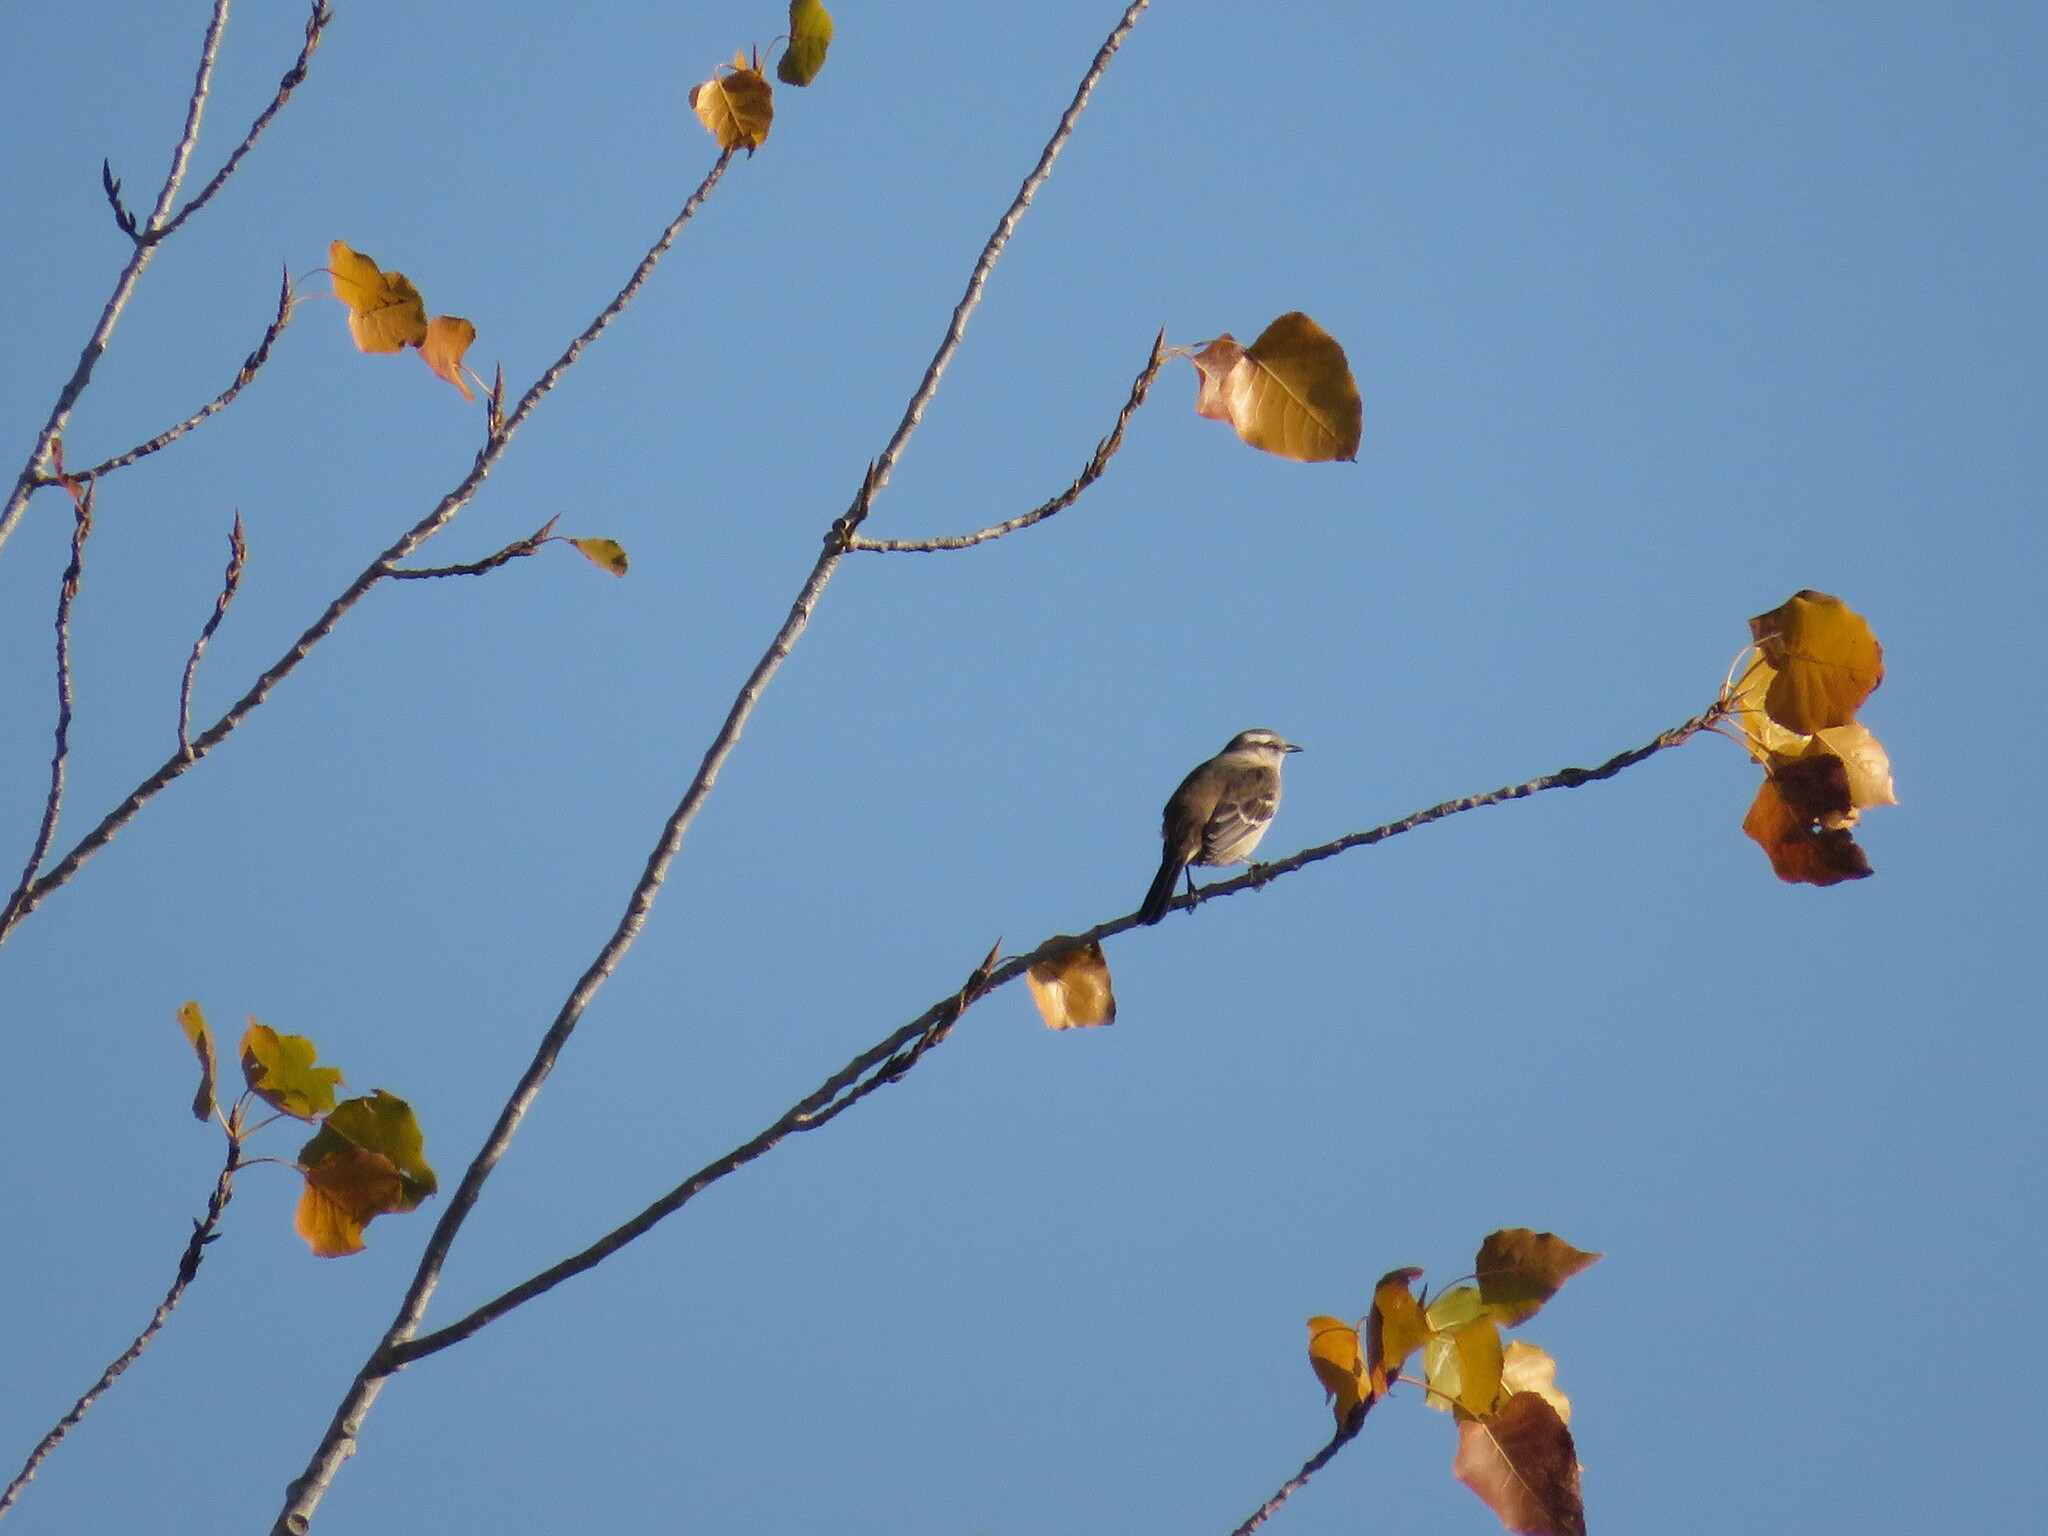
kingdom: Animalia
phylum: Chordata
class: Aves
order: Passeriformes
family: Mimidae
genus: Mimus
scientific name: Mimus saturninus
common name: Chalk-browed mockingbird
